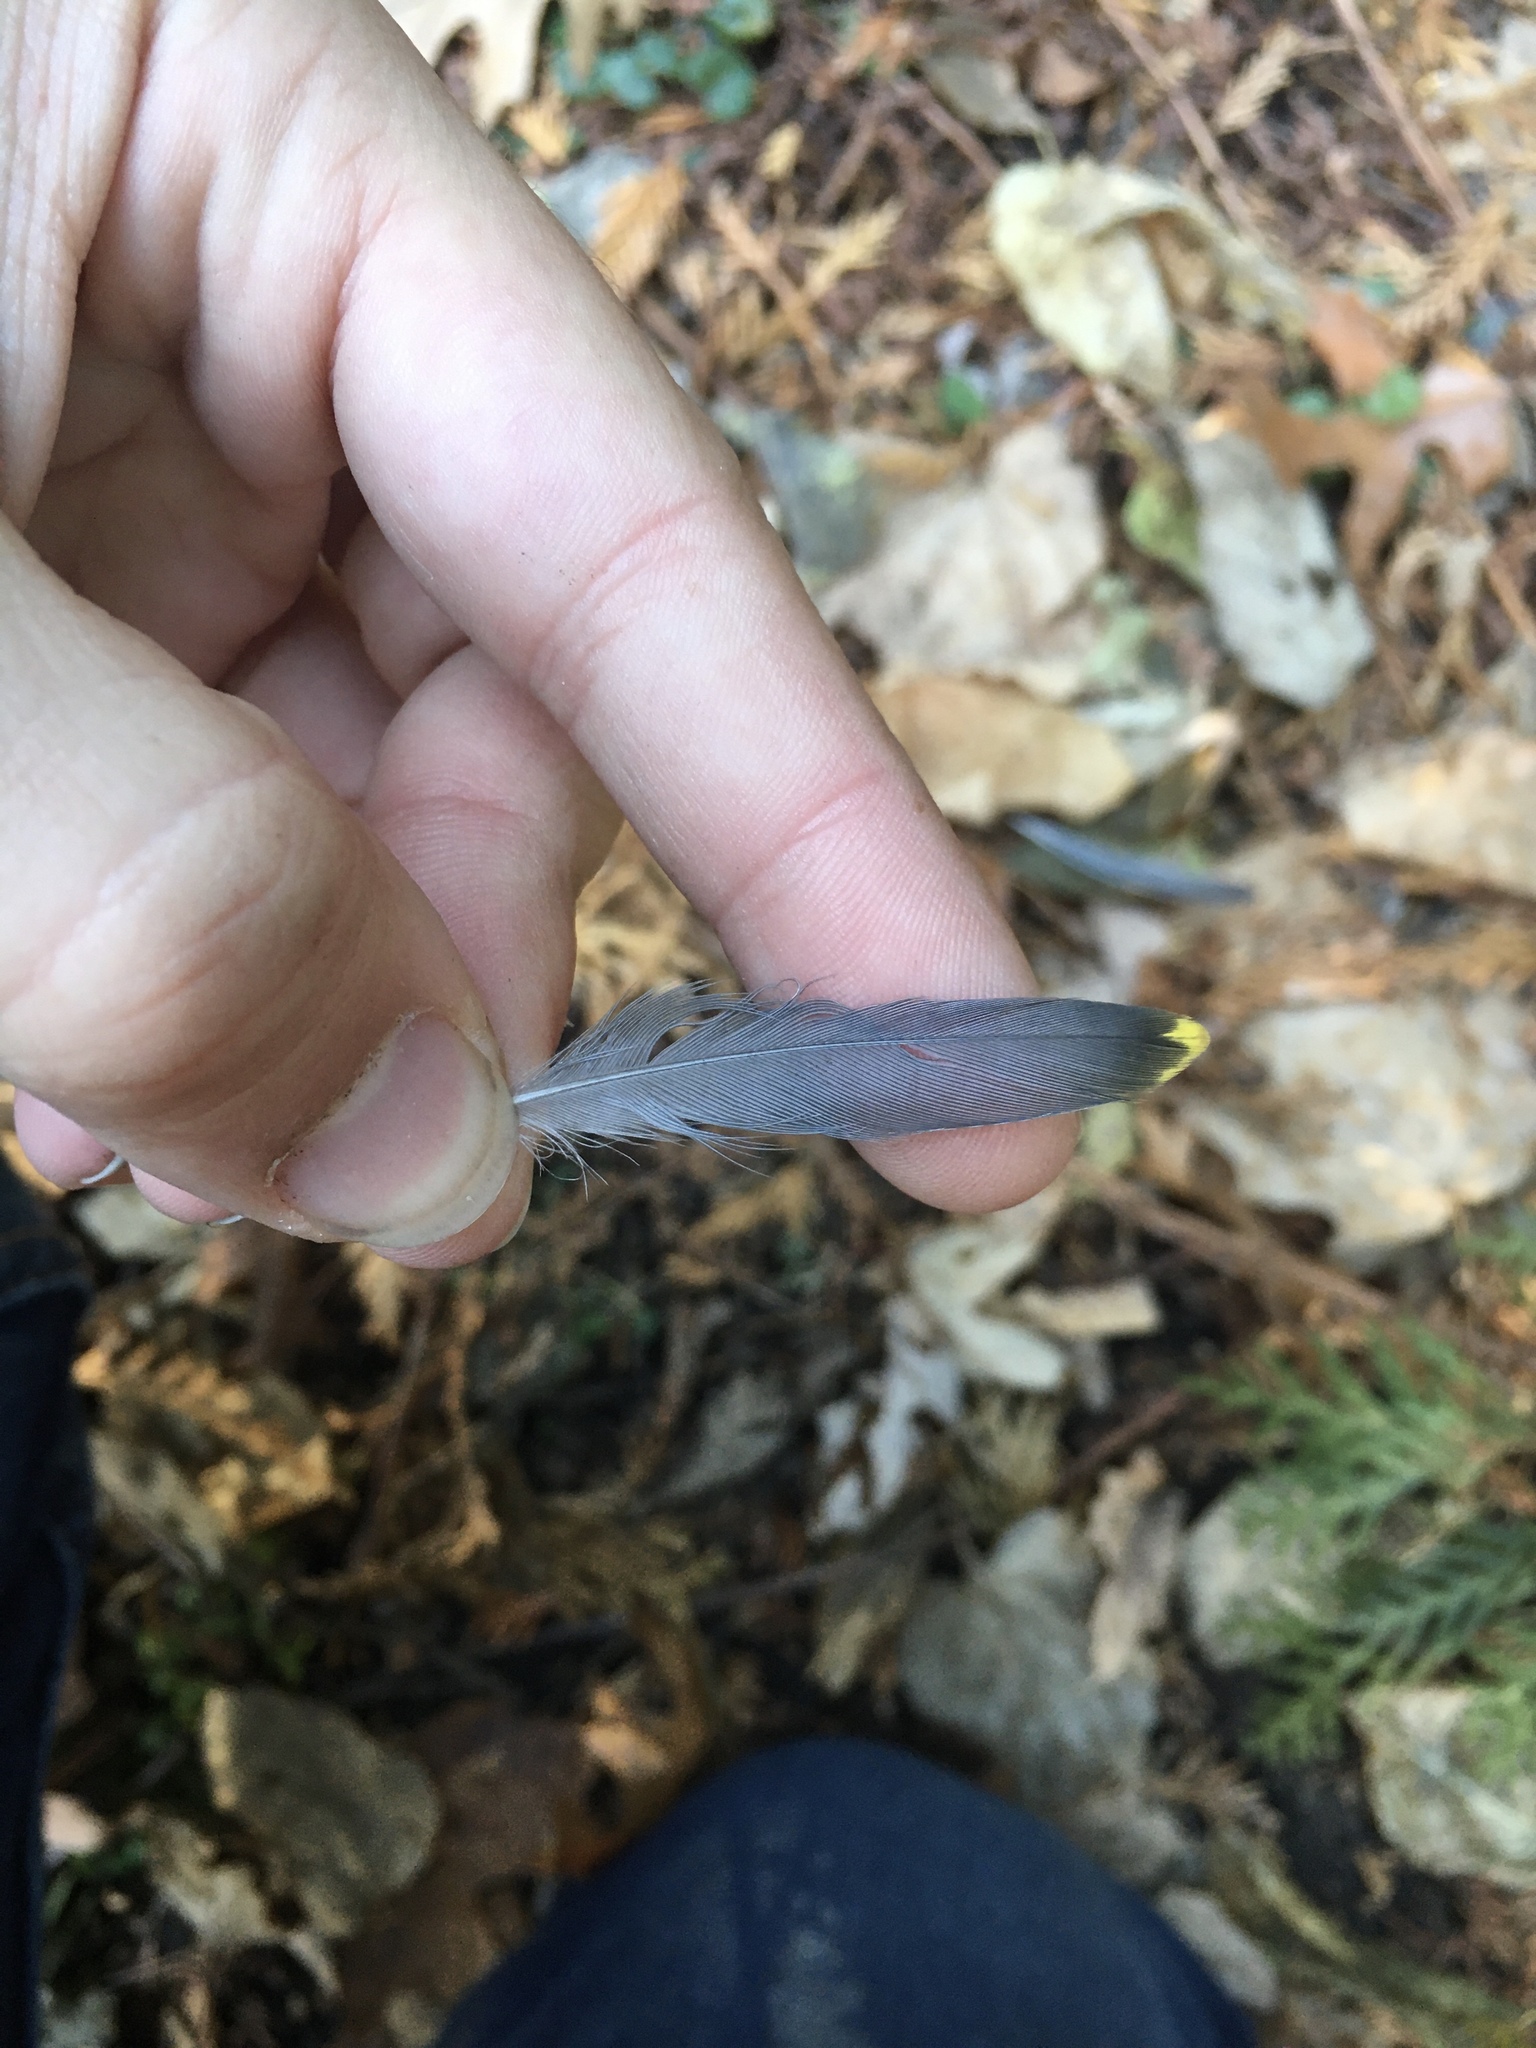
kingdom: Animalia
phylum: Chordata
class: Aves
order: Passeriformes
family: Bombycillidae
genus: Bombycilla
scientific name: Bombycilla cedrorum
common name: Cedar waxwing
